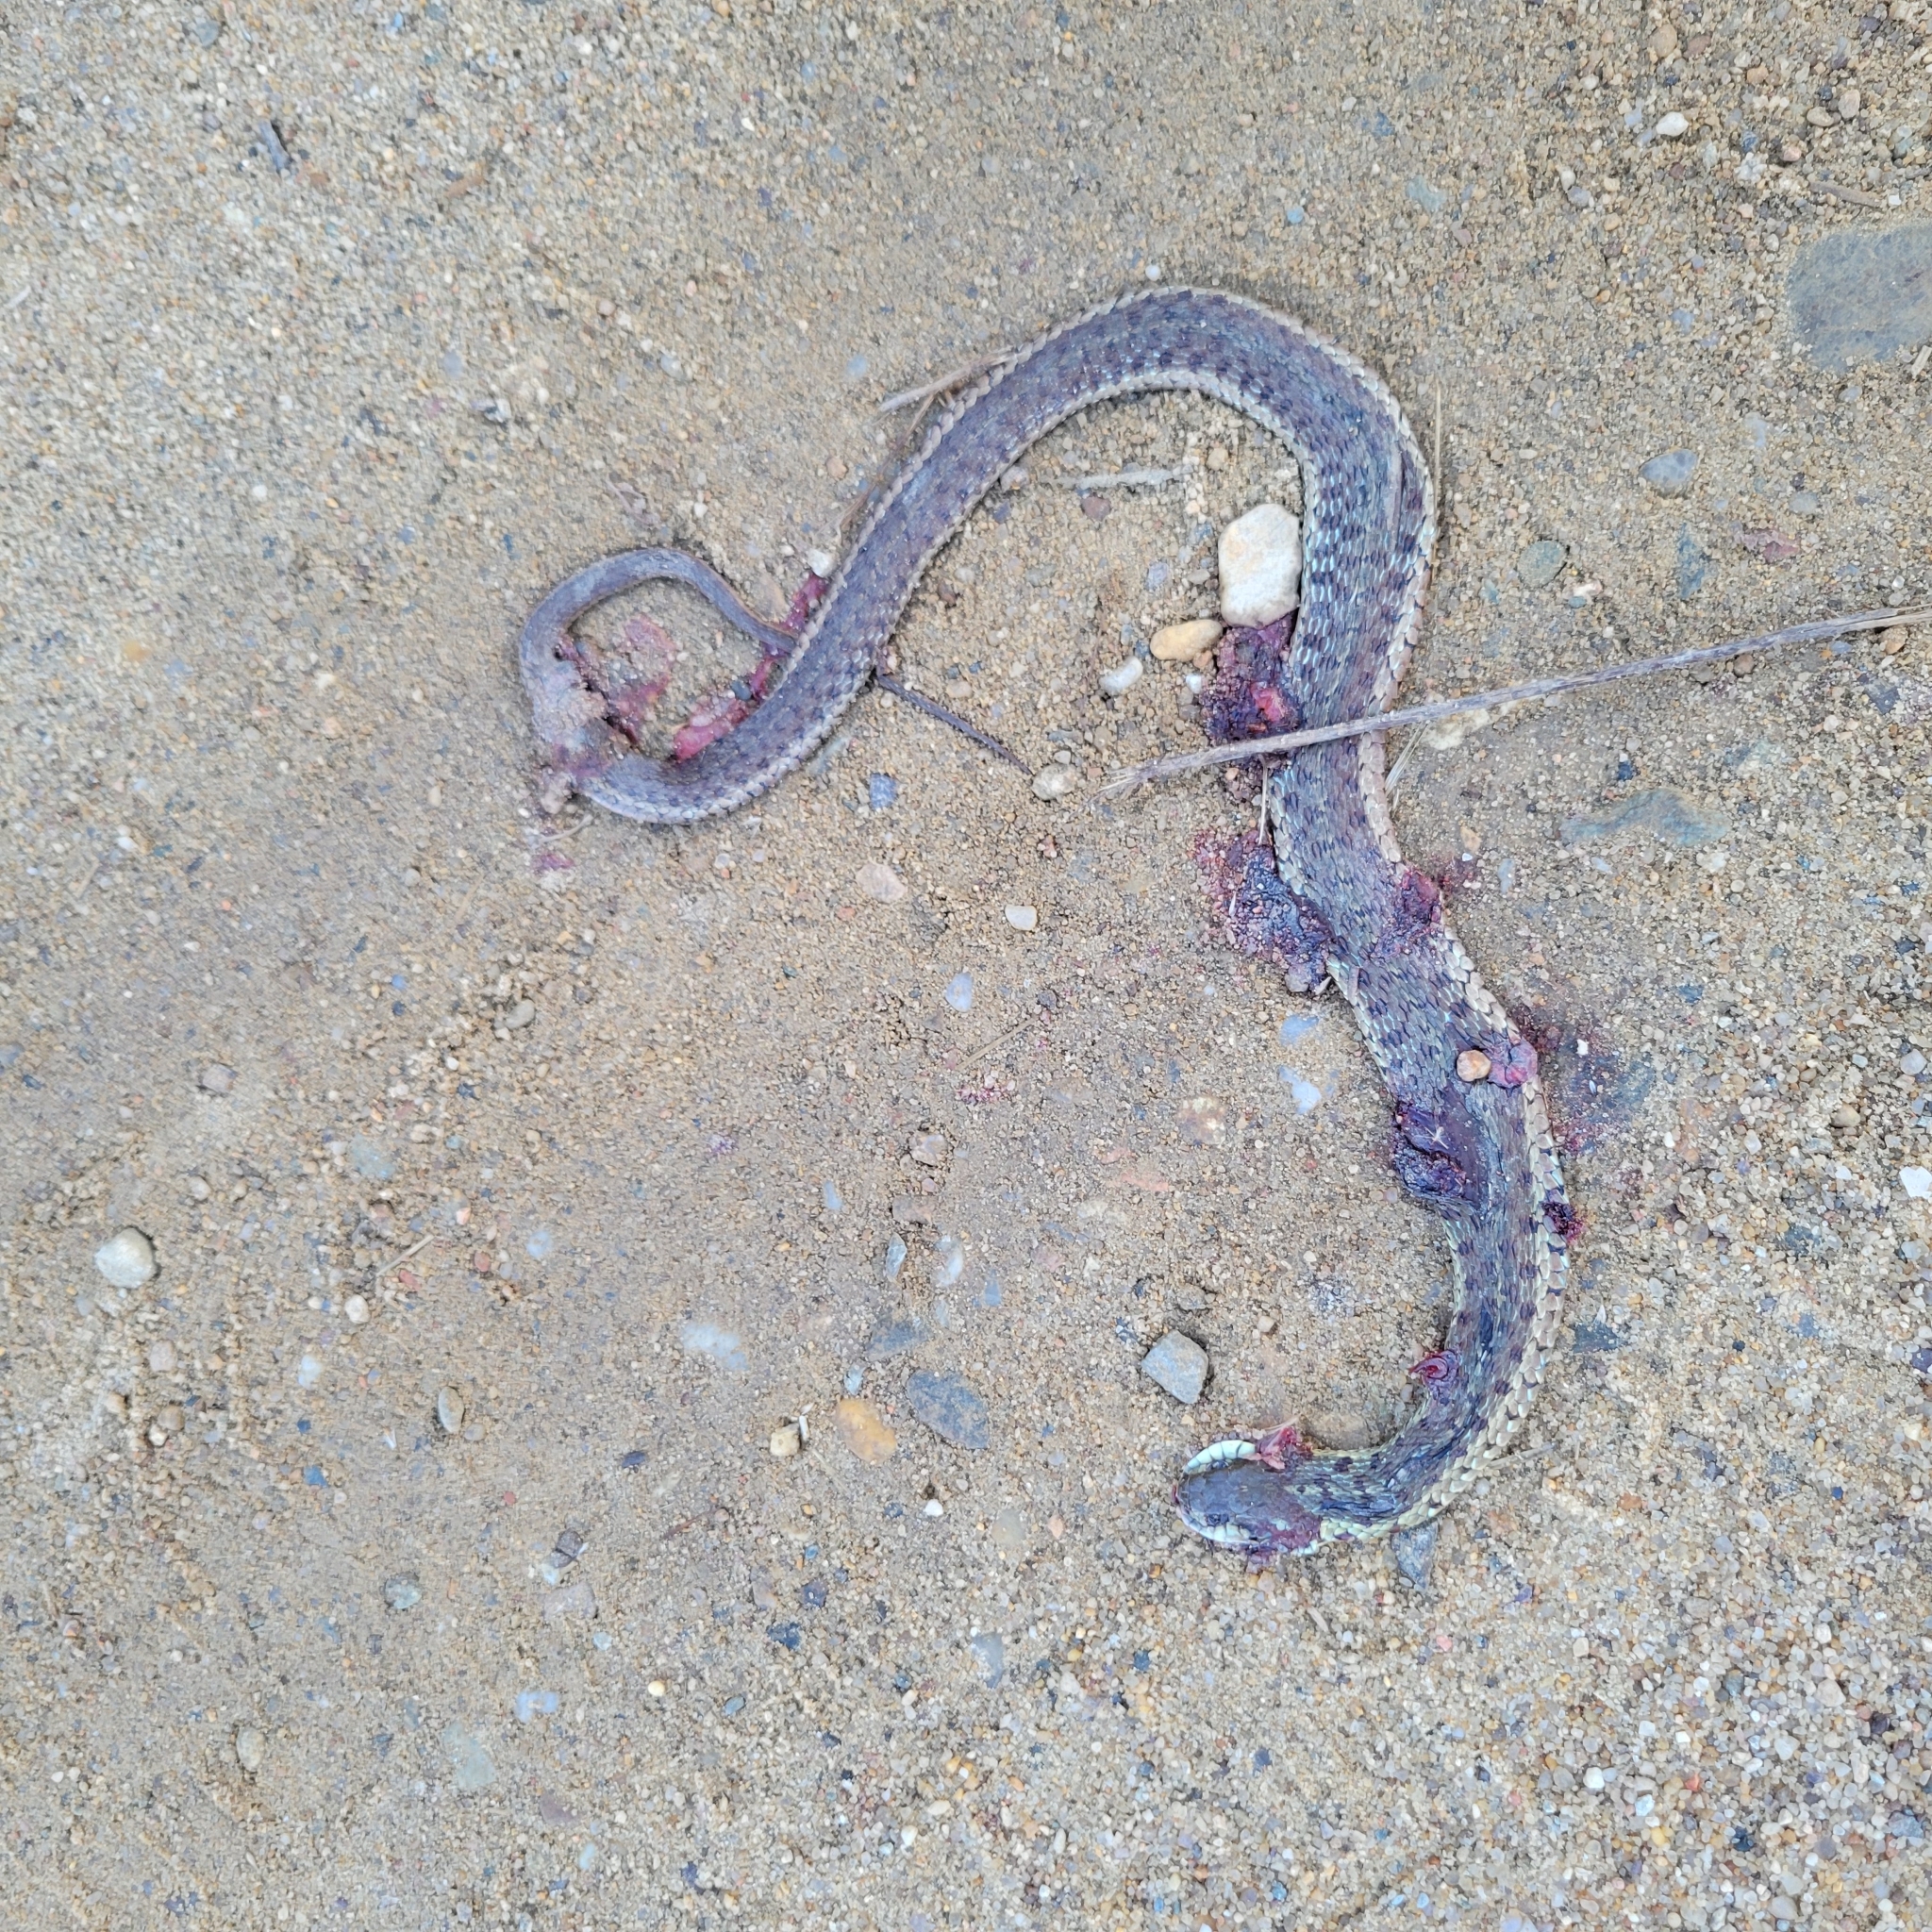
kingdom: Animalia
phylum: Chordata
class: Squamata
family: Colubridae
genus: Thamnophis
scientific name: Thamnophis sirtalis
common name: Common garter snake
